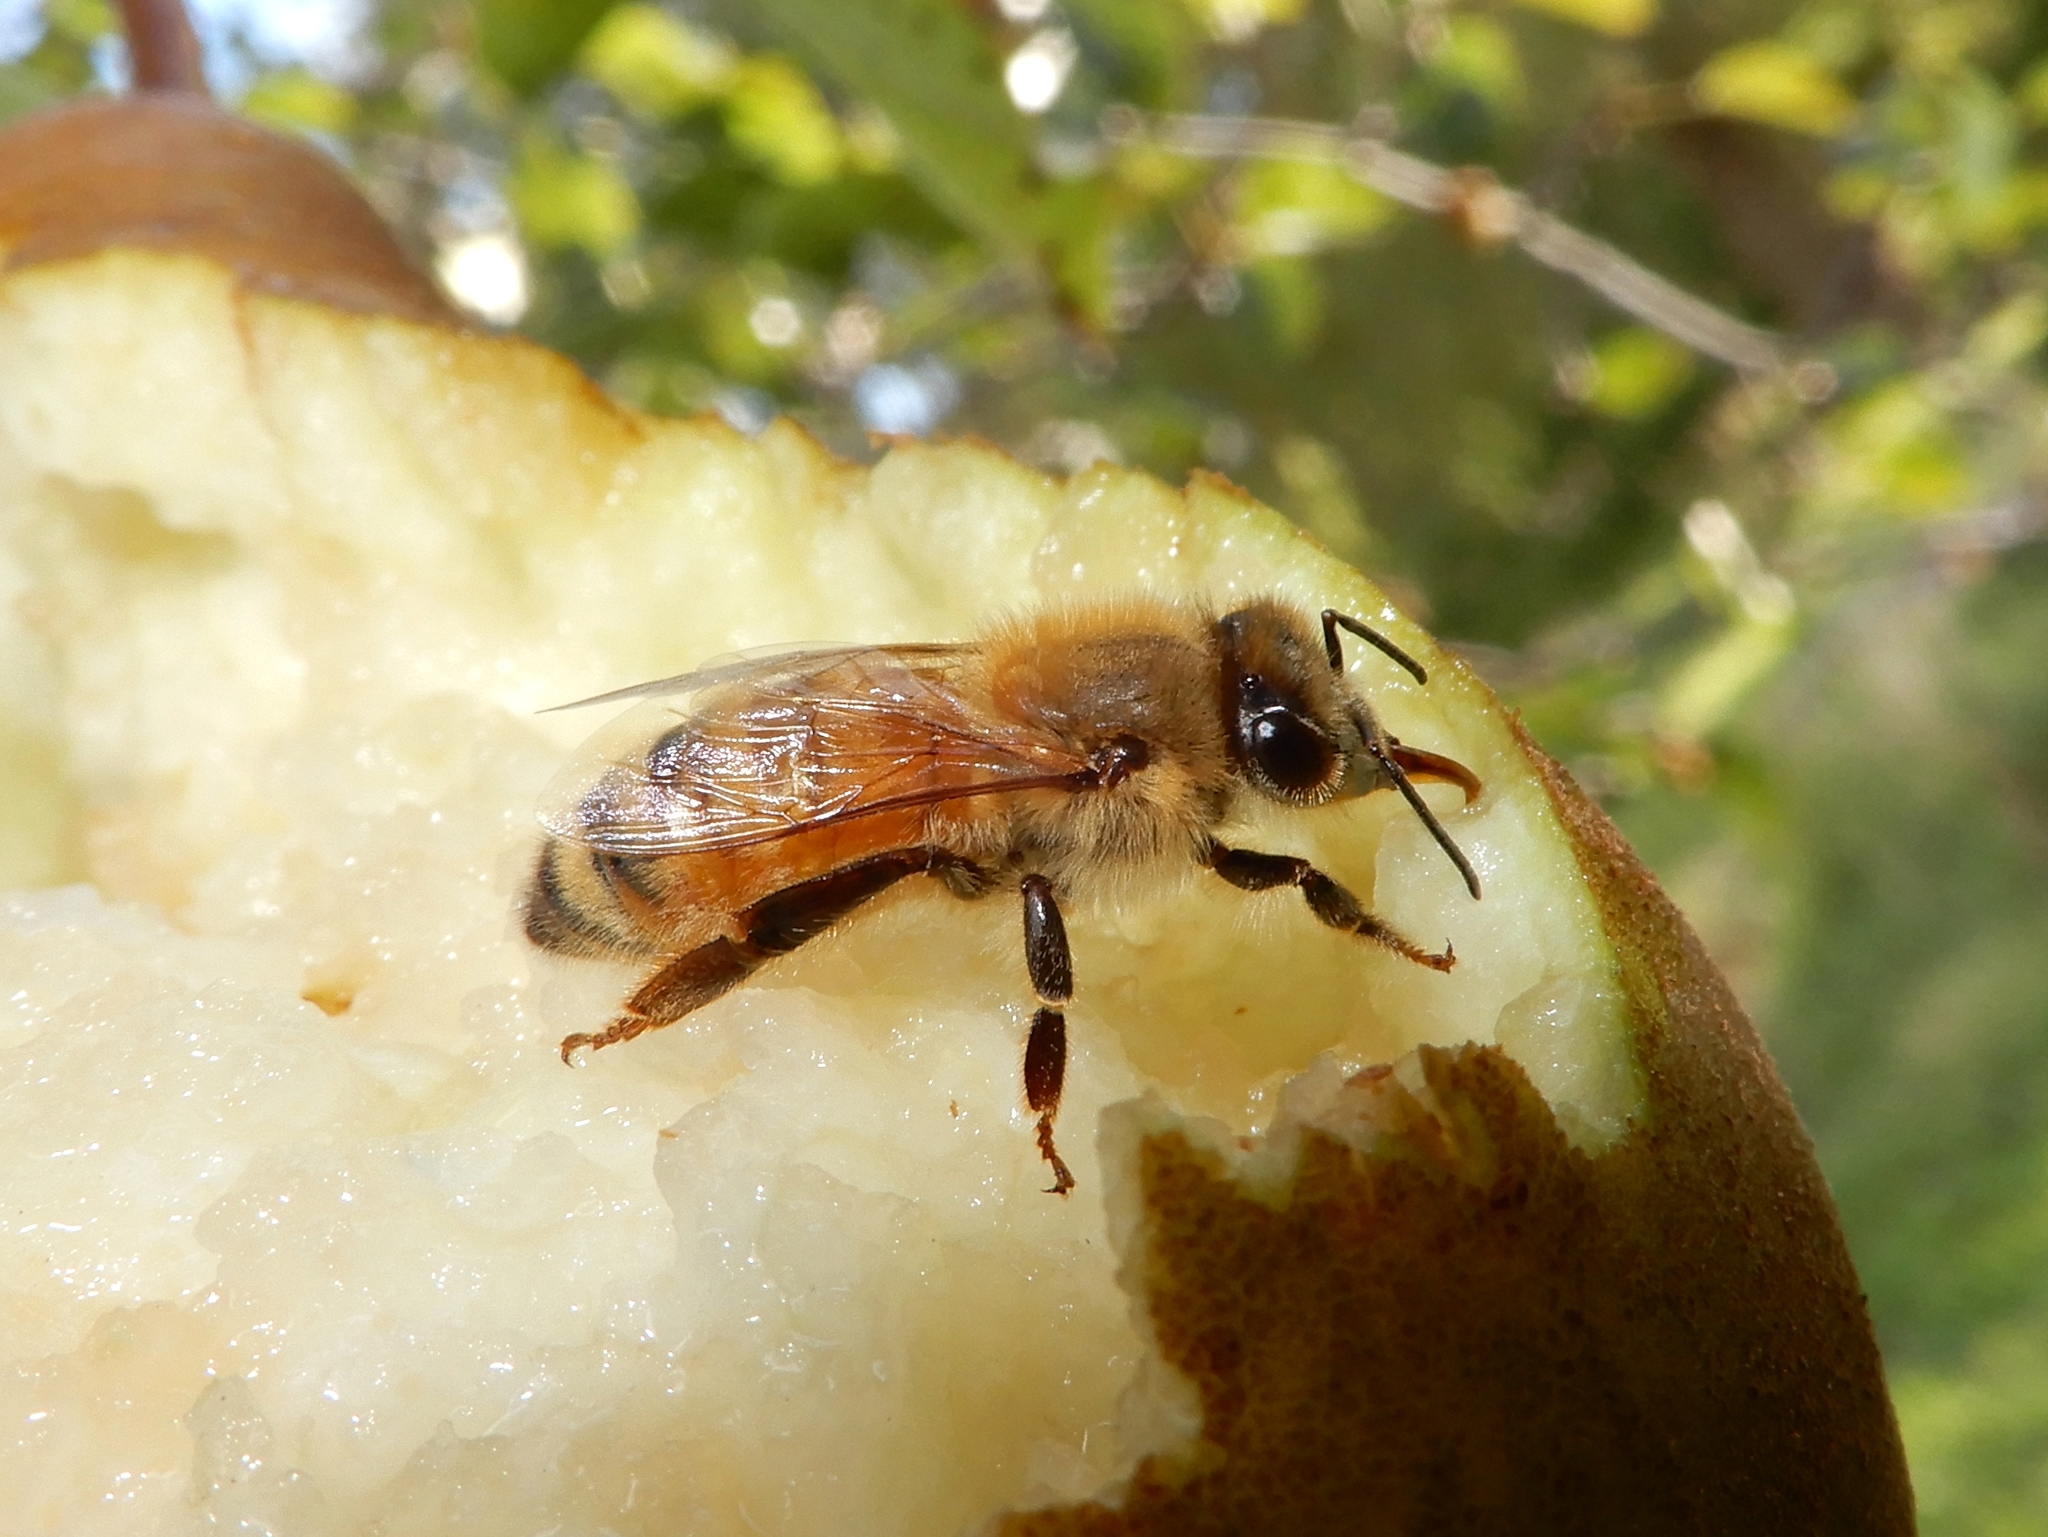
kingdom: Animalia
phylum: Arthropoda
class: Insecta
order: Hymenoptera
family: Apidae
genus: Apis
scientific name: Apis mellifera
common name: Honey bee
